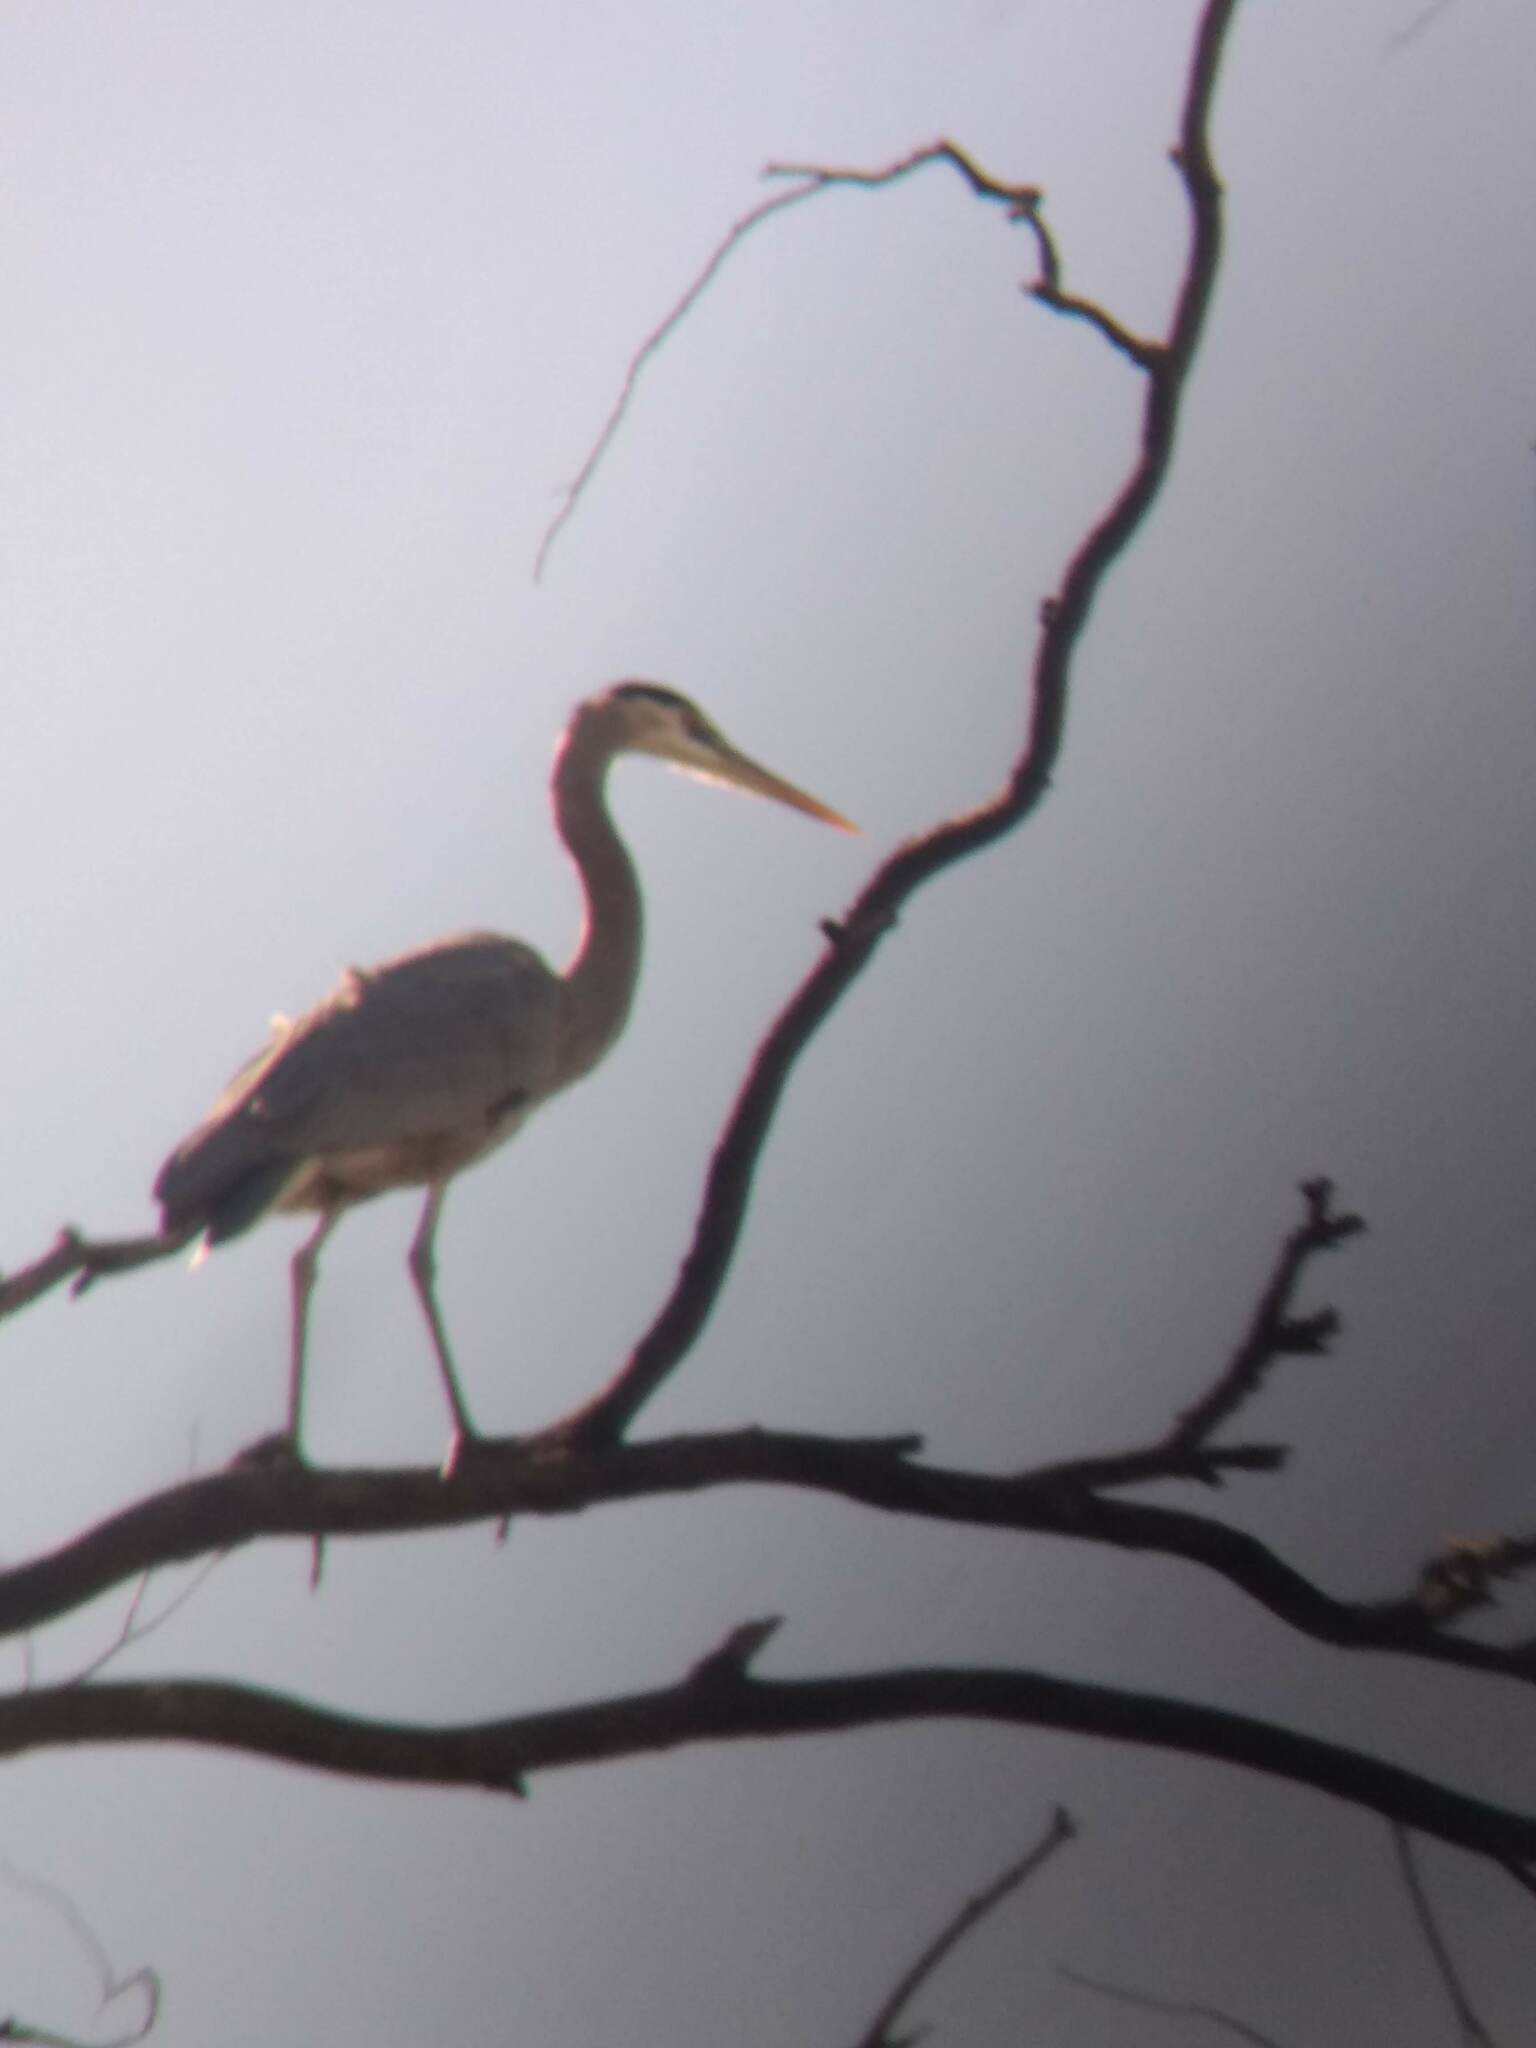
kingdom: Animalia
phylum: Chordata
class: Aves
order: Pelecaniformes
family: Ardeidae
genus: Ardea
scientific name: Ardea herodias
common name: Great blue heron
